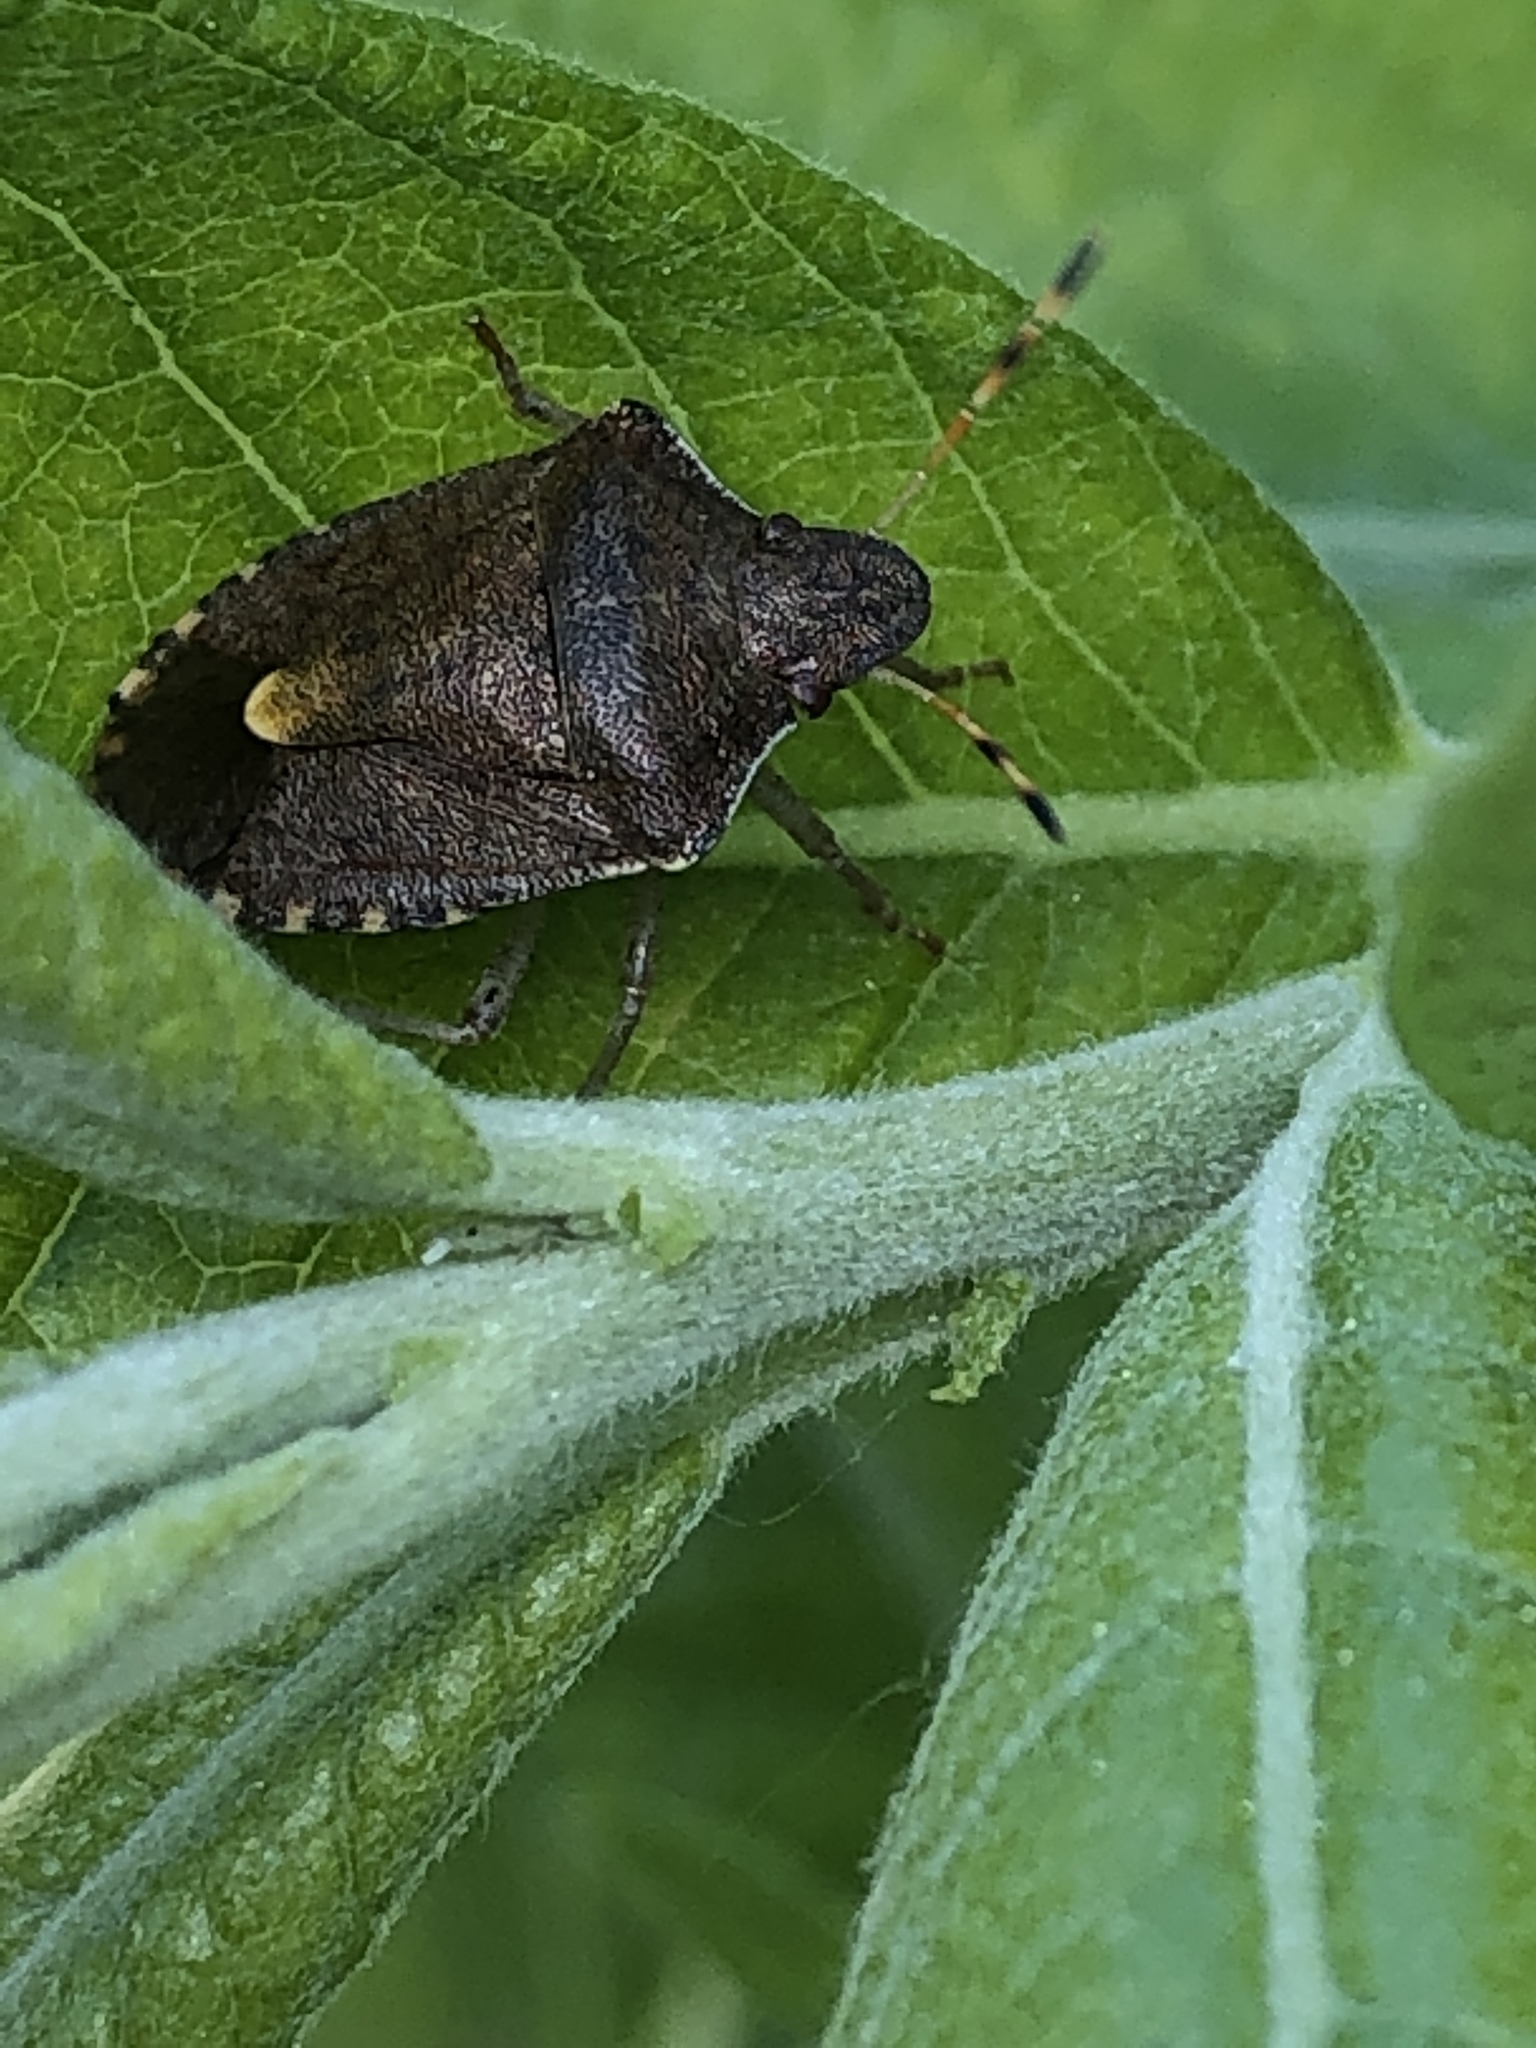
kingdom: Animalia
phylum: Arthropoda
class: Insecta
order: Hemiptera
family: Pentatomidae
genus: Holcostethus
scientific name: Holcostethus strictus
